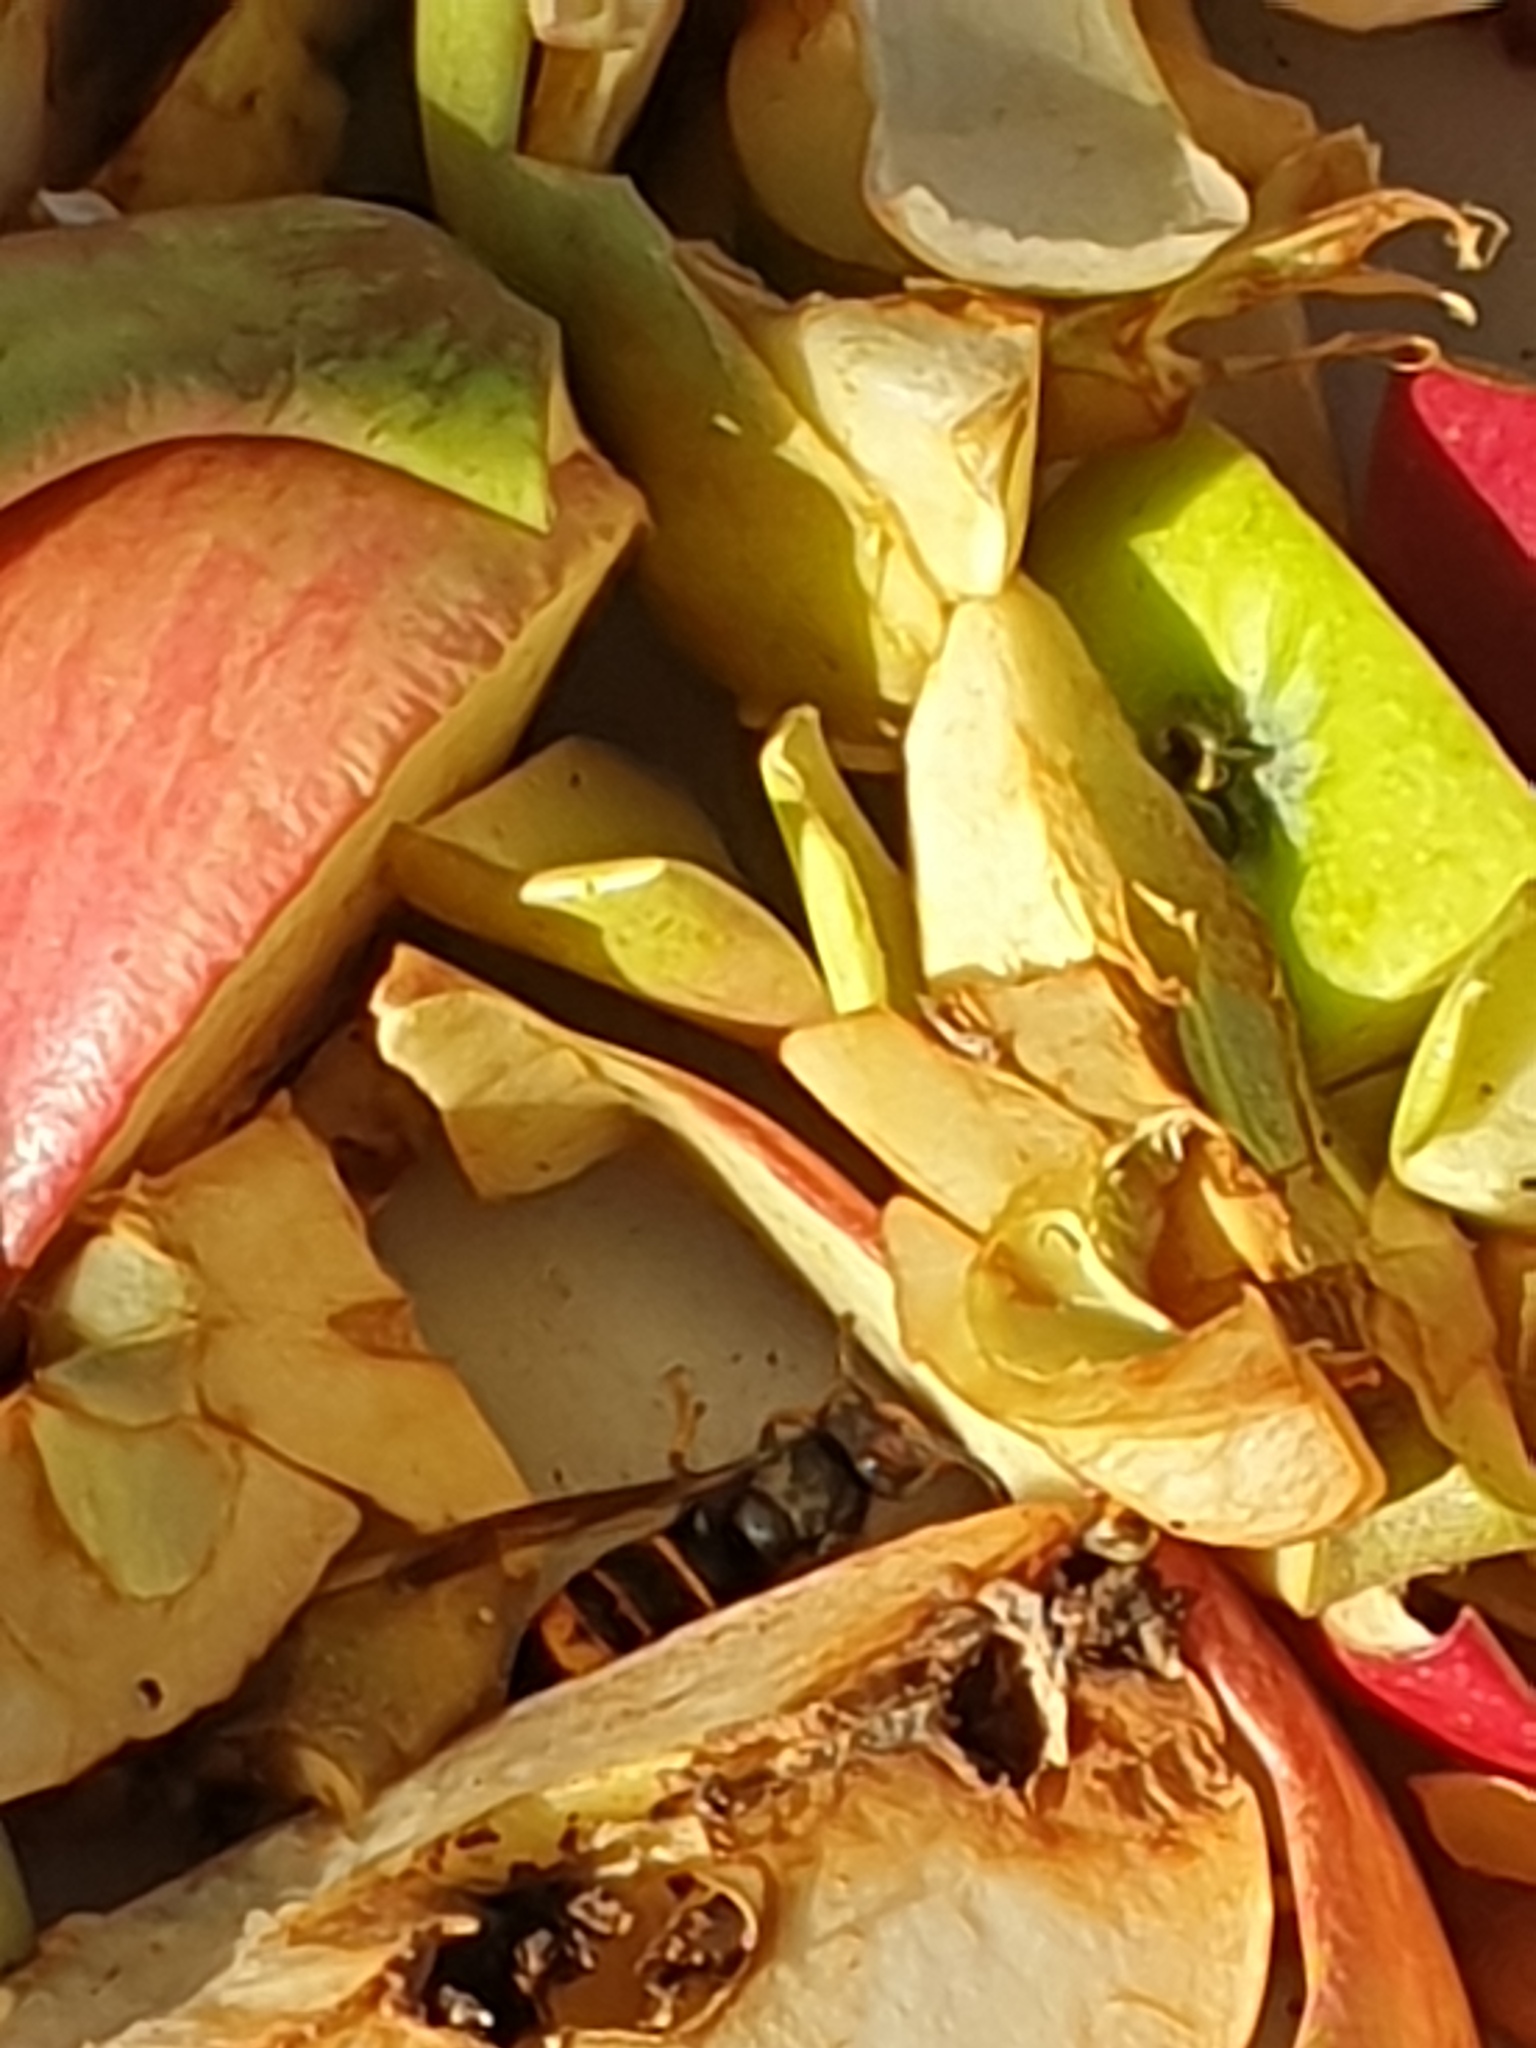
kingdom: Animalia
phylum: Arthropoda
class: Insecta
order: Hymenoptera
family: Vespidae
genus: Vespa
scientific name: Vespa velutina
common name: Asian hornet
